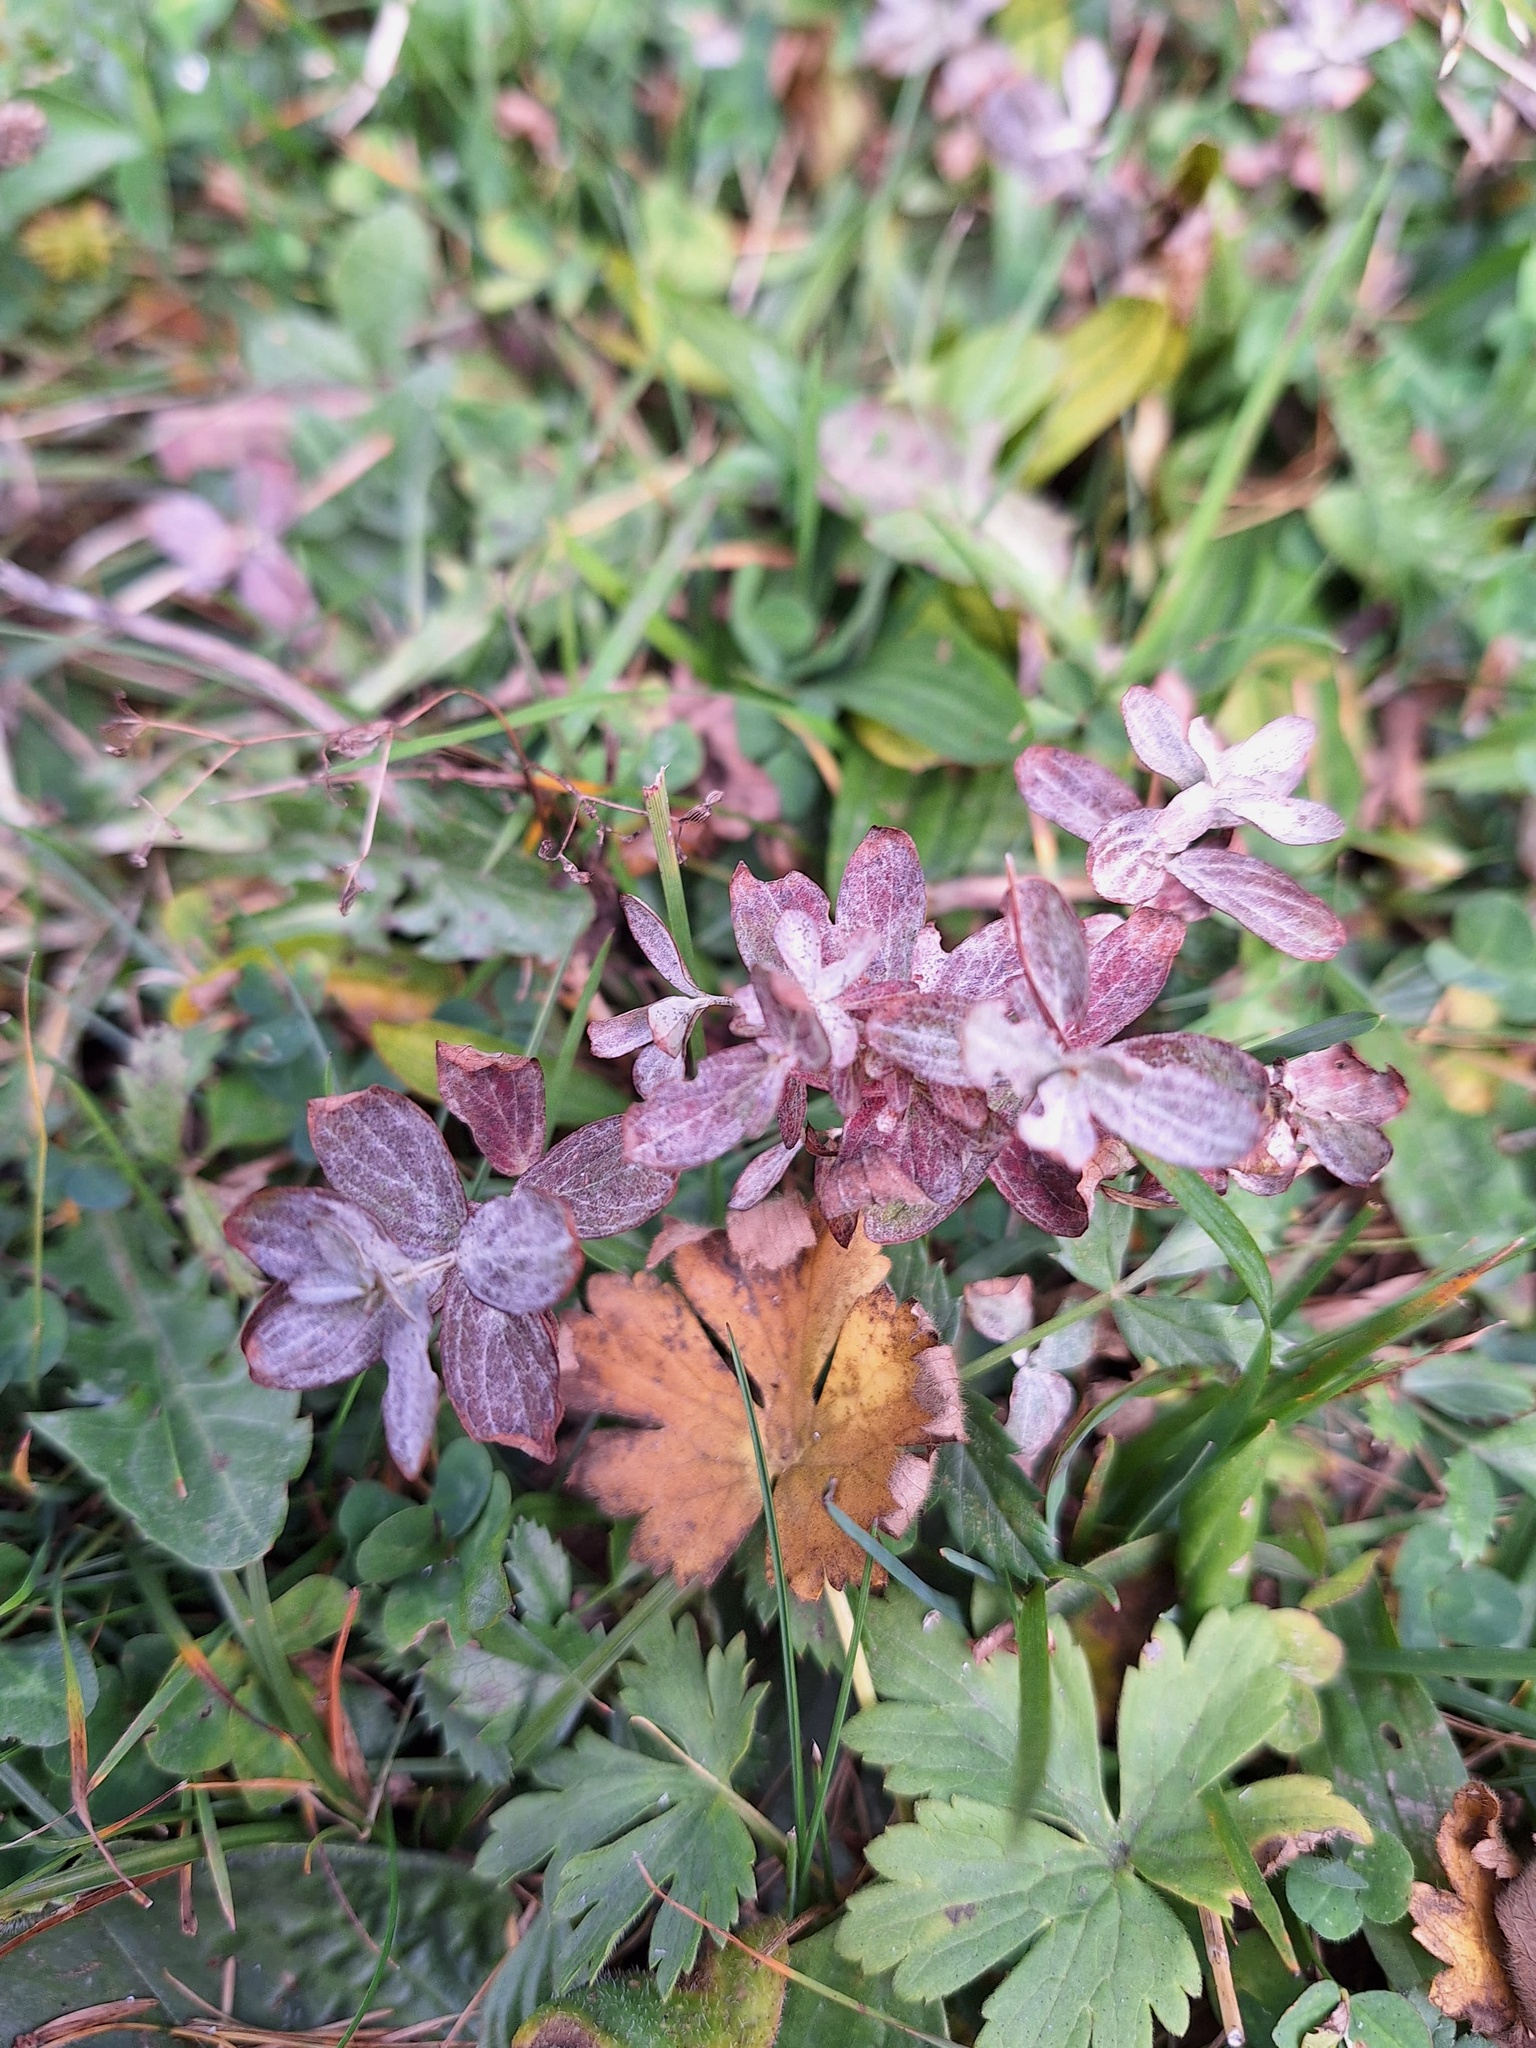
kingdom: Plantae
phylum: Tracheophyta
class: Magnoliopsida
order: Malpighiales
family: Hypericaceae
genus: Hypericum
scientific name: Hypericum perforatum
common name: Common st. johnswort
